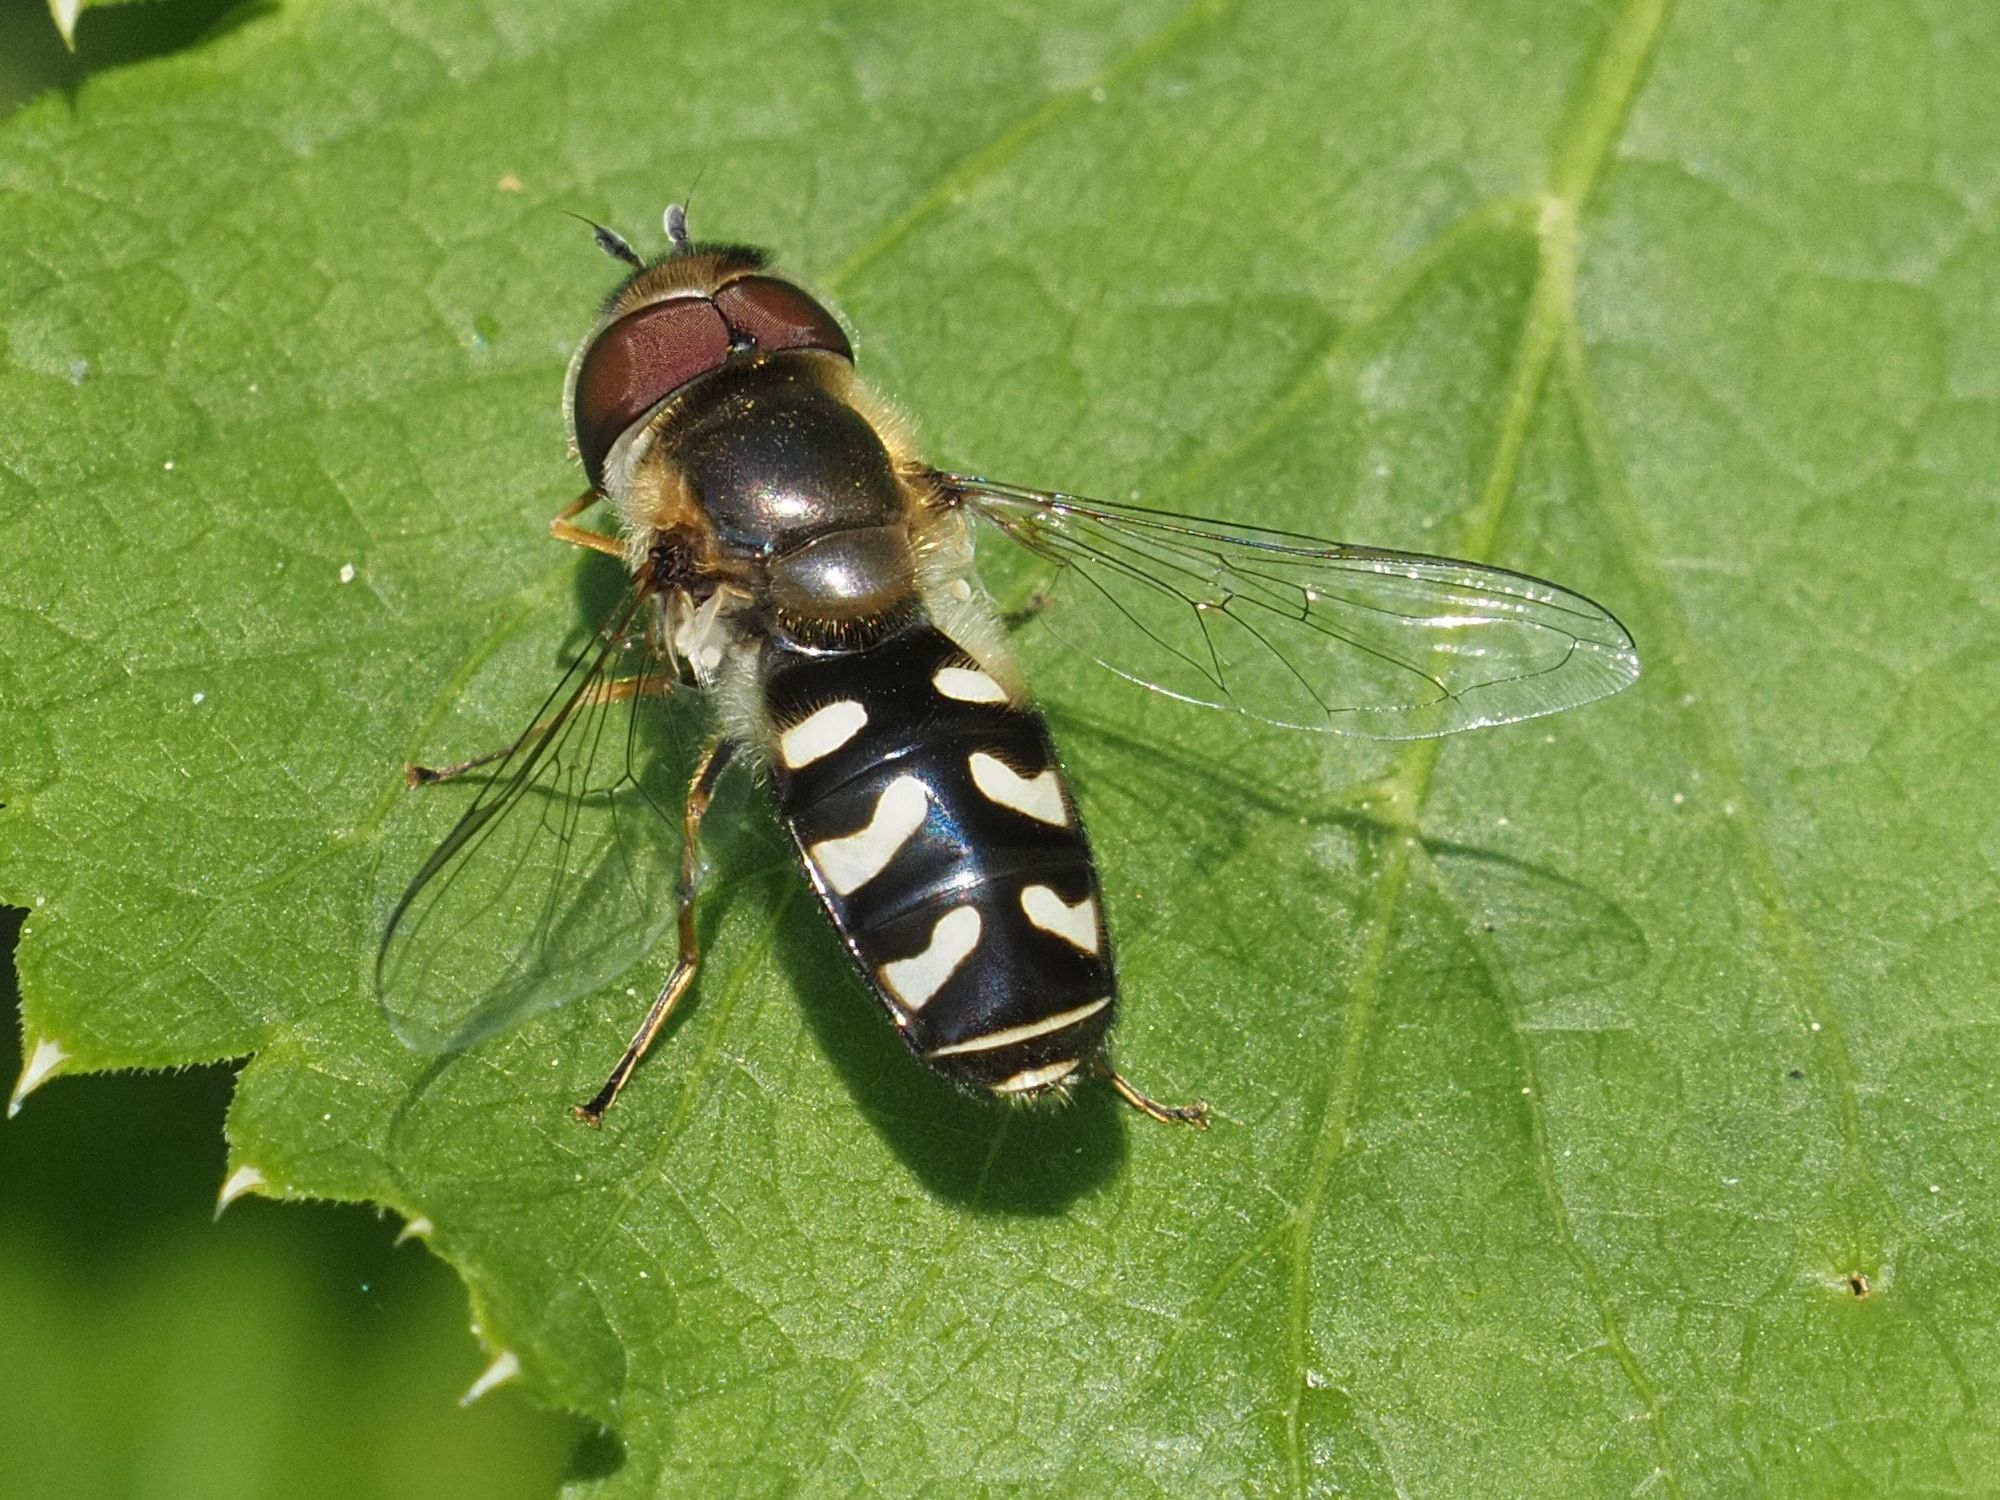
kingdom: Animalia
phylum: Arthropoda
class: Insecta
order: Diptera
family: Syrphidae
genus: Scaeva
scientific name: Scaeva pyrastri
